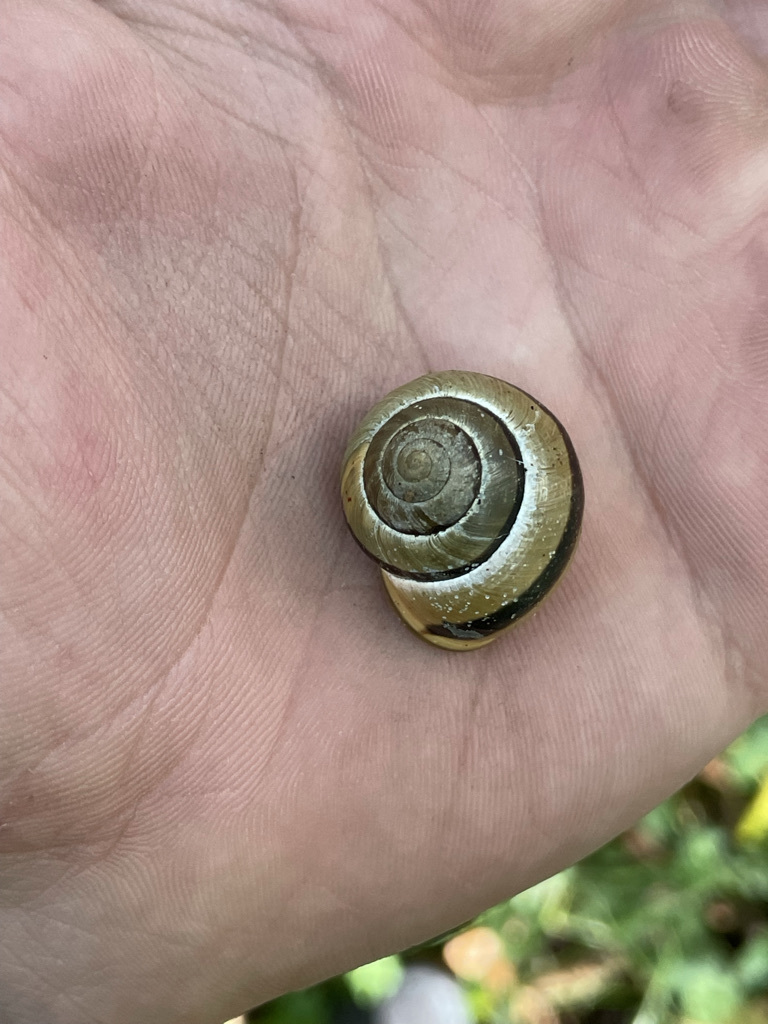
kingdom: Animalia
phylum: Mollusca
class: Gastropoda
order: Stylommatophora
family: Helicidae
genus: Cepaea
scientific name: Cepaea nemoralis
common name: Grovesnail
